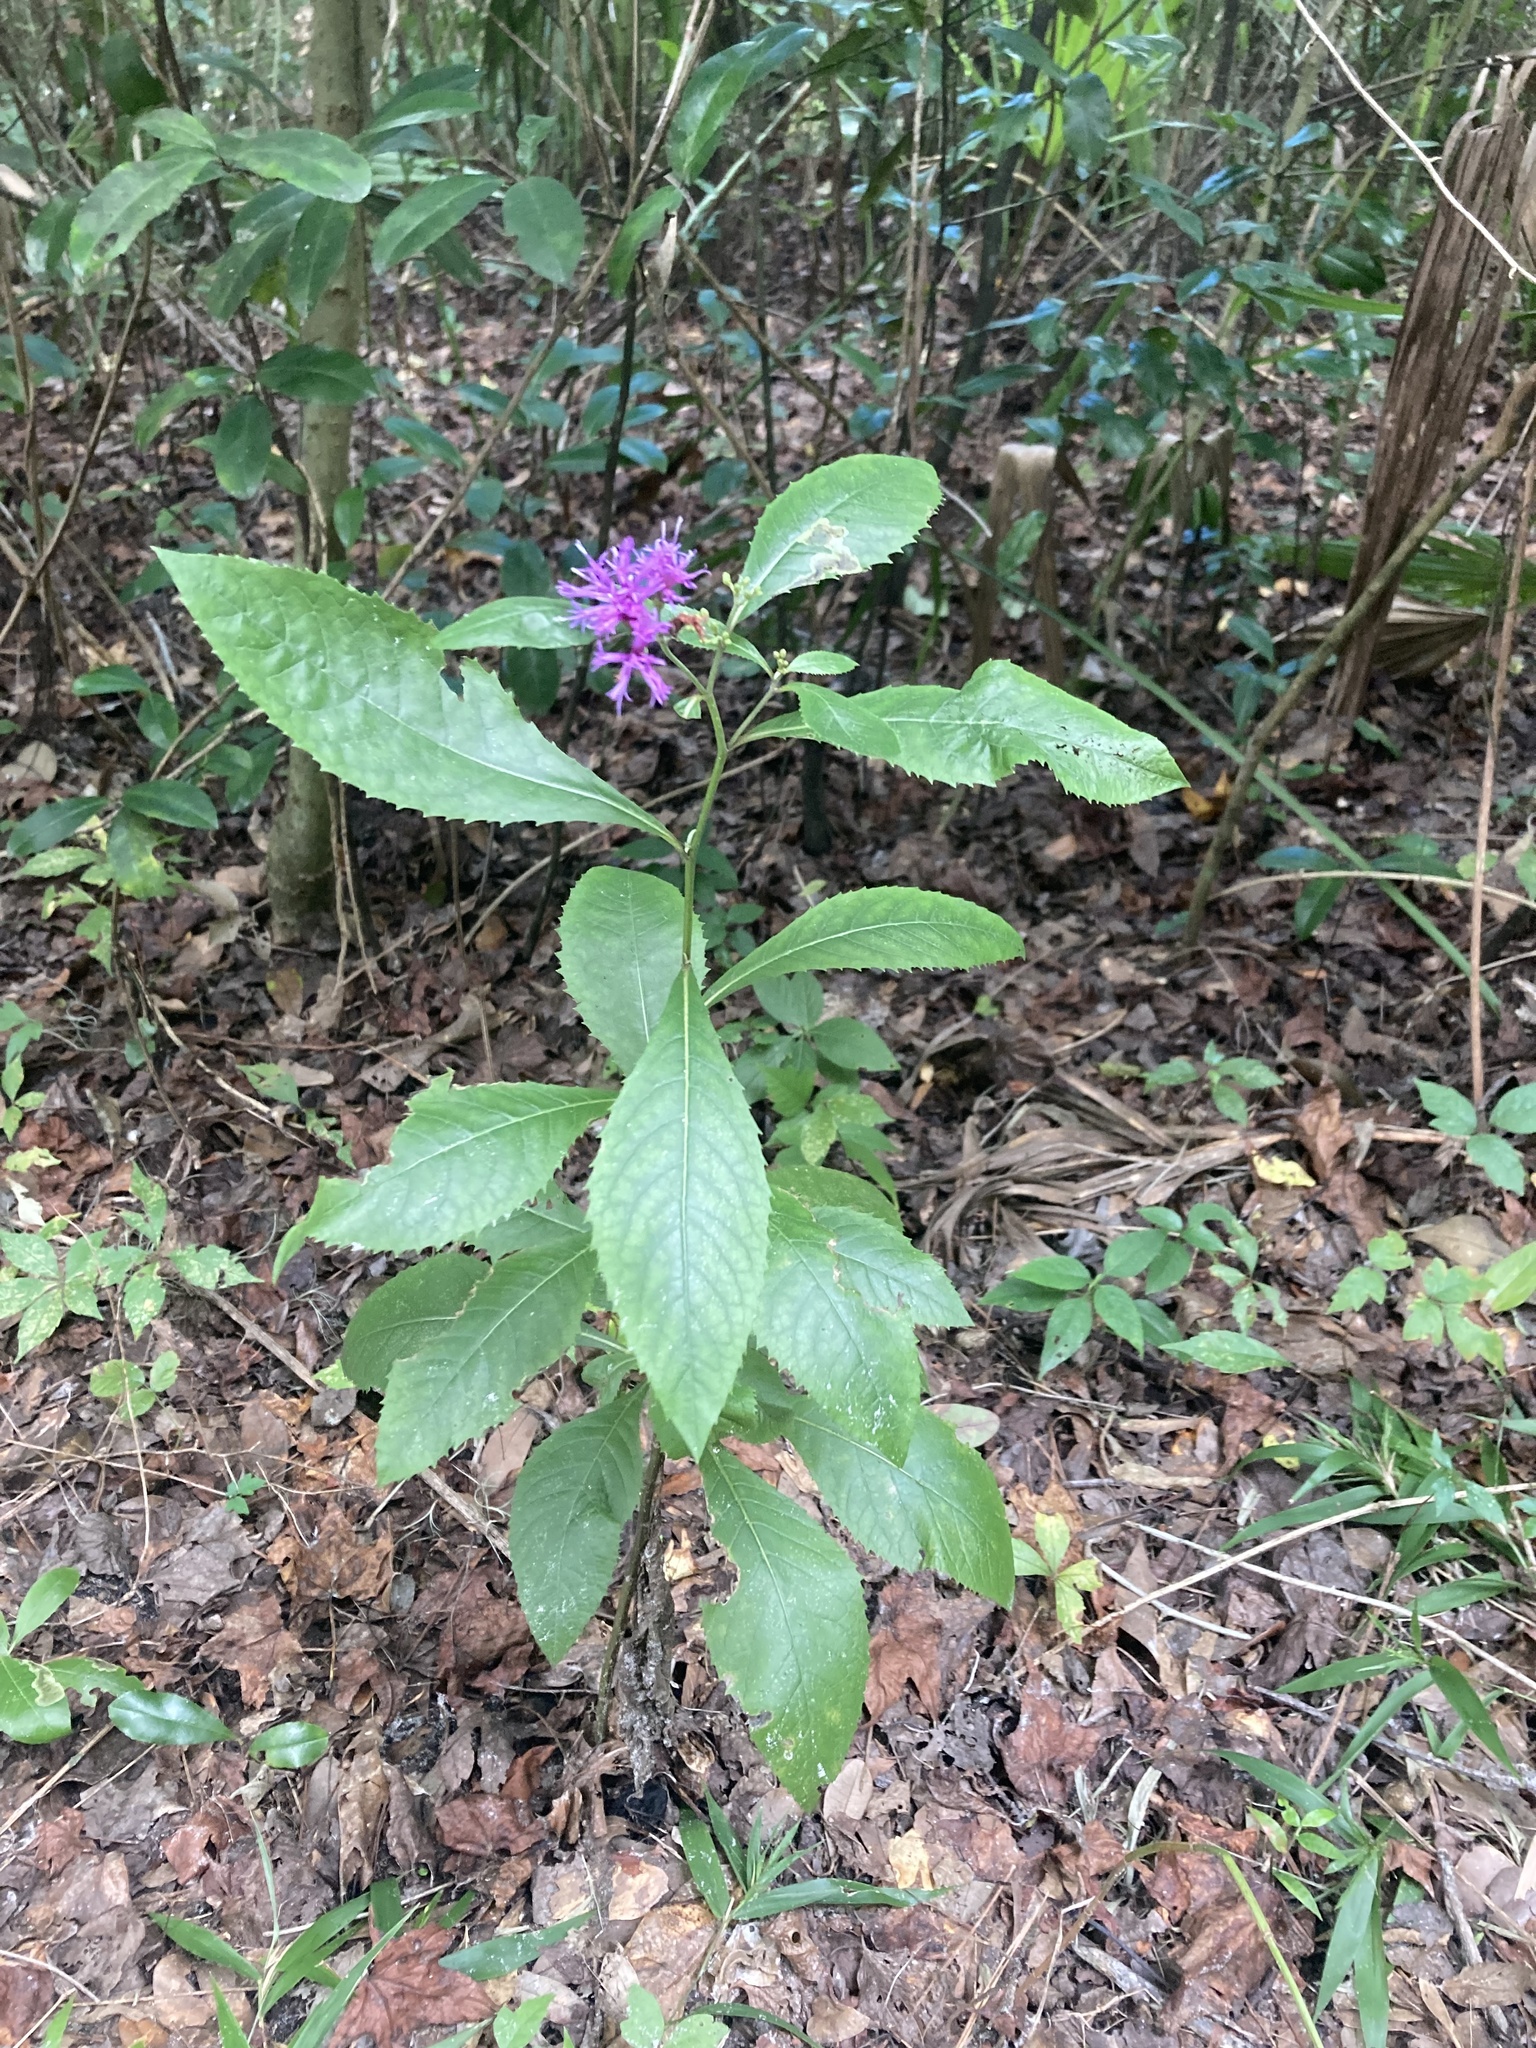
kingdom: Plantae
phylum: Tracheophyta
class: Magnoliopsida
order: Asterales
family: Asteraceae
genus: Vernonia
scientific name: Vernonia gigantea
